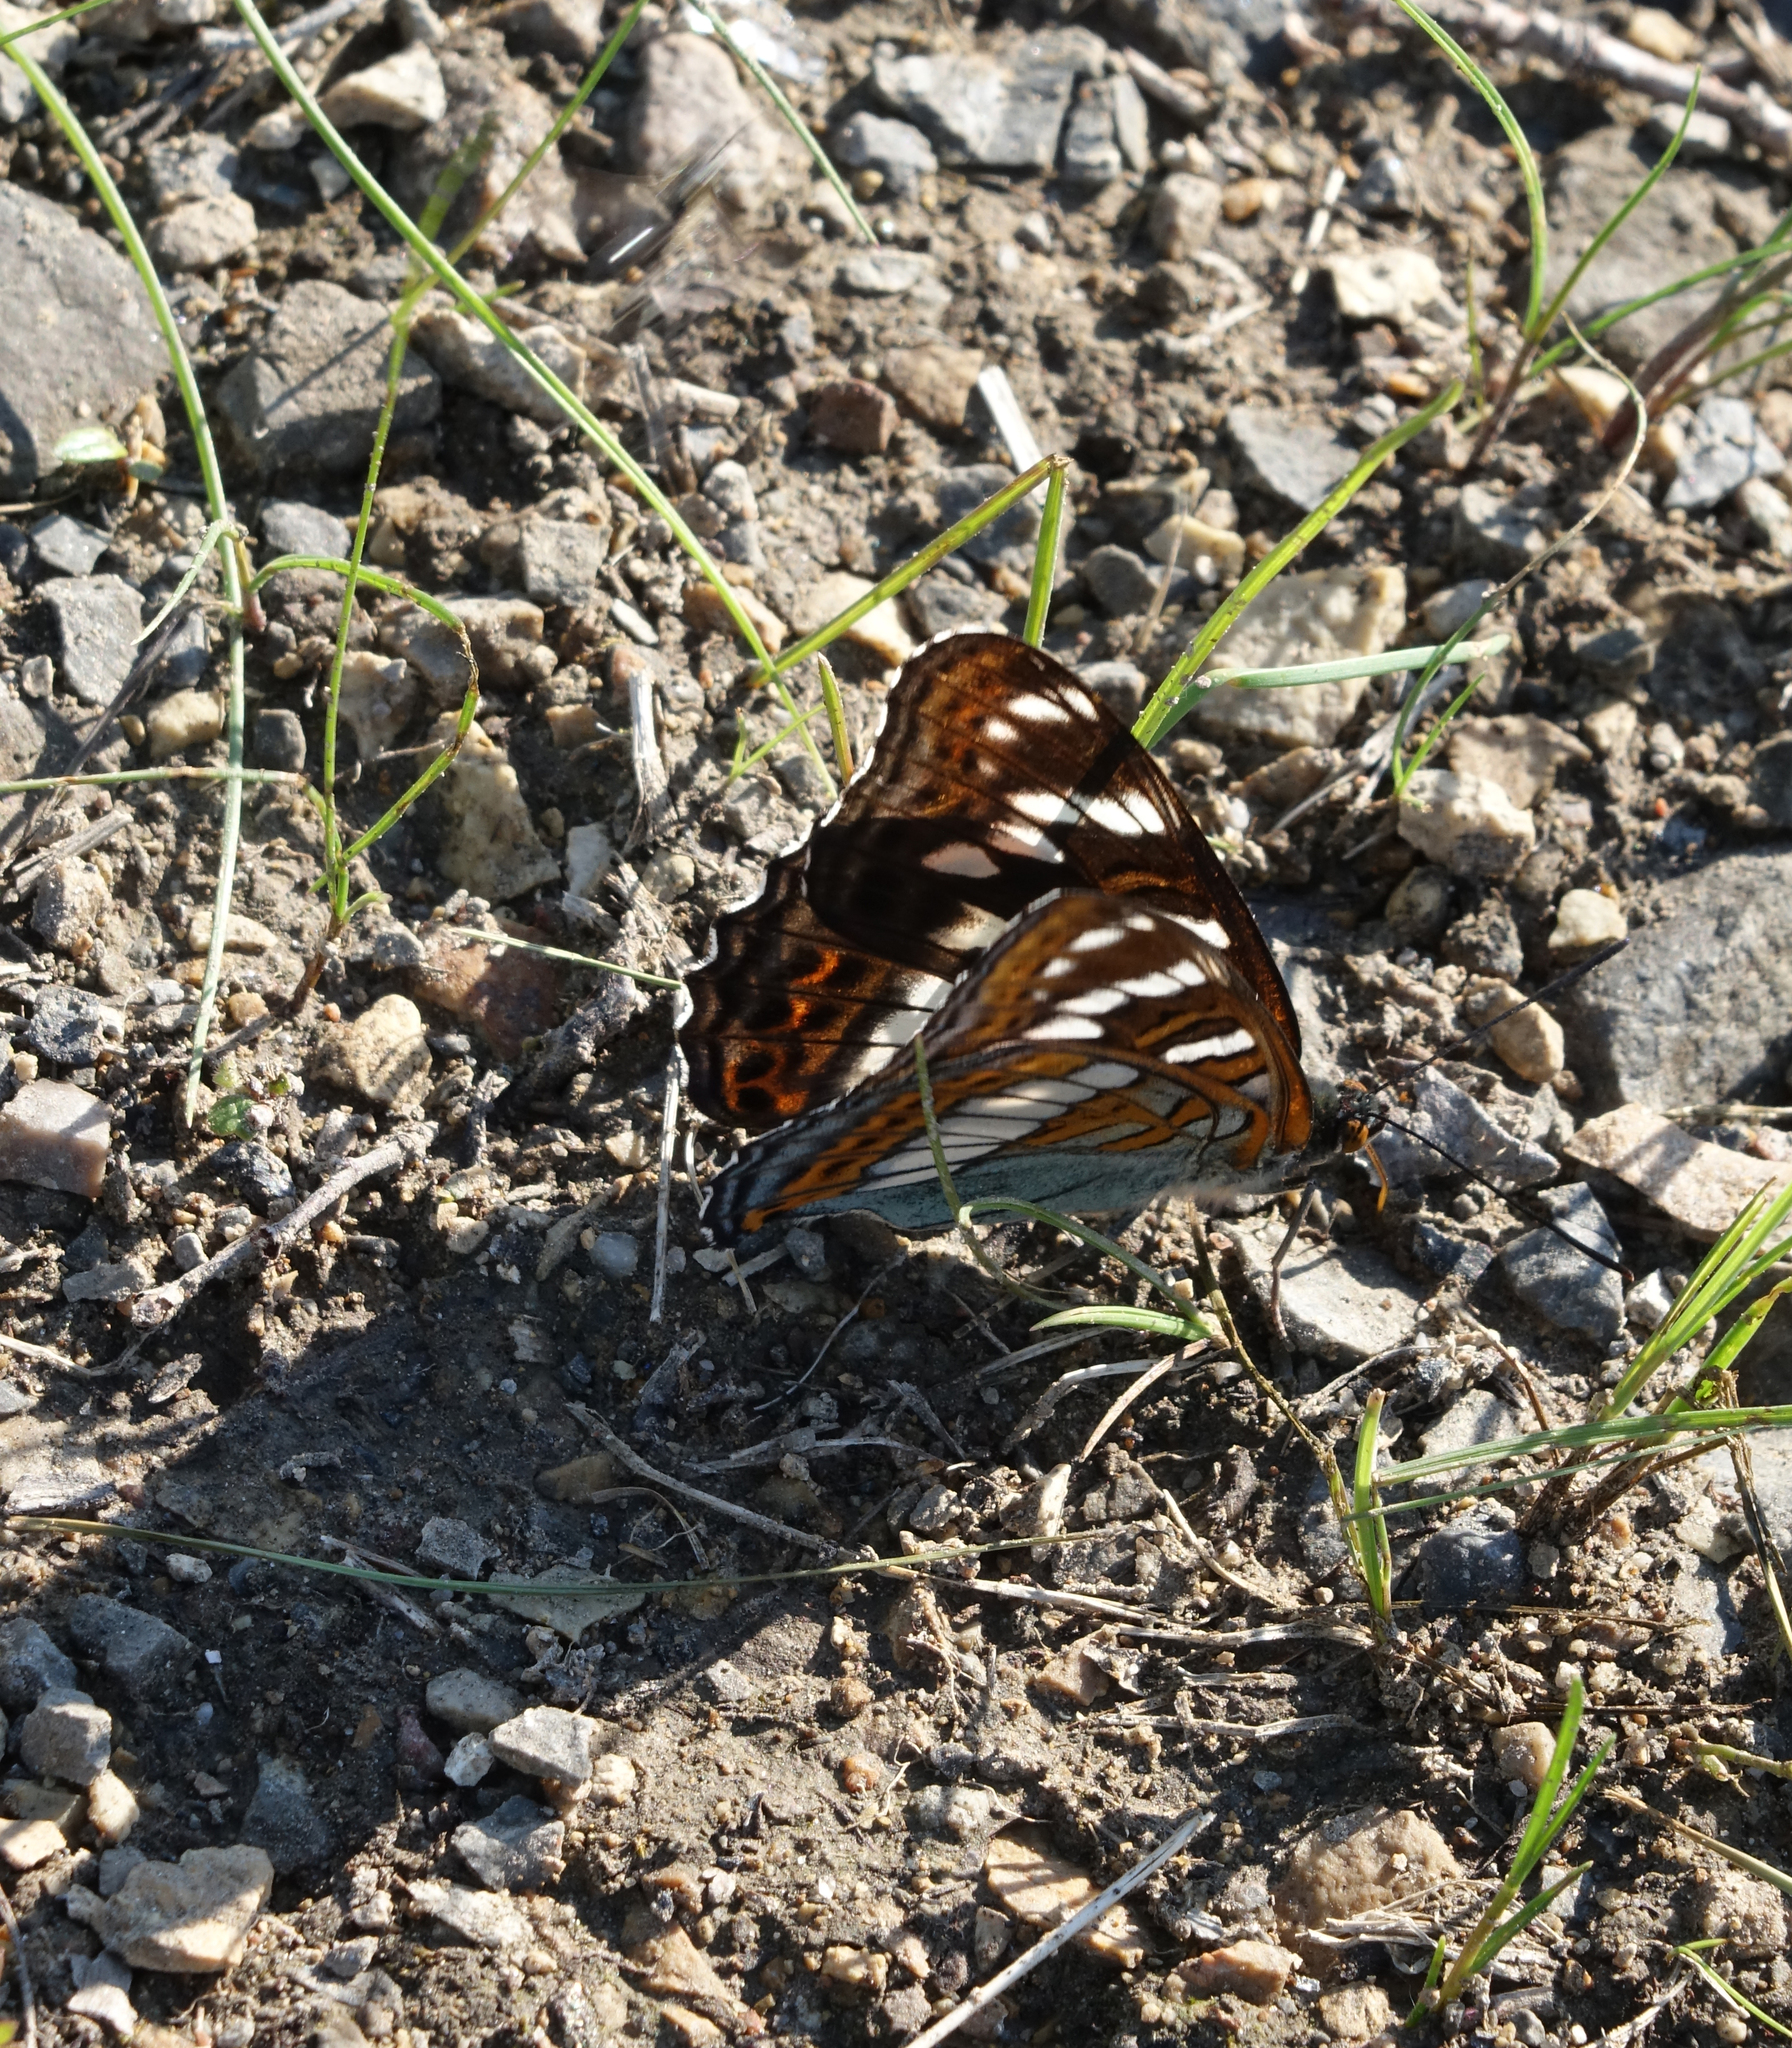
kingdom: Animalia
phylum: Arthropoda
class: Insecta
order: Lepidoptera
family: Nymphalidae
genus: Limenitis
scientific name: Limenitis populi
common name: Poplar admiral
